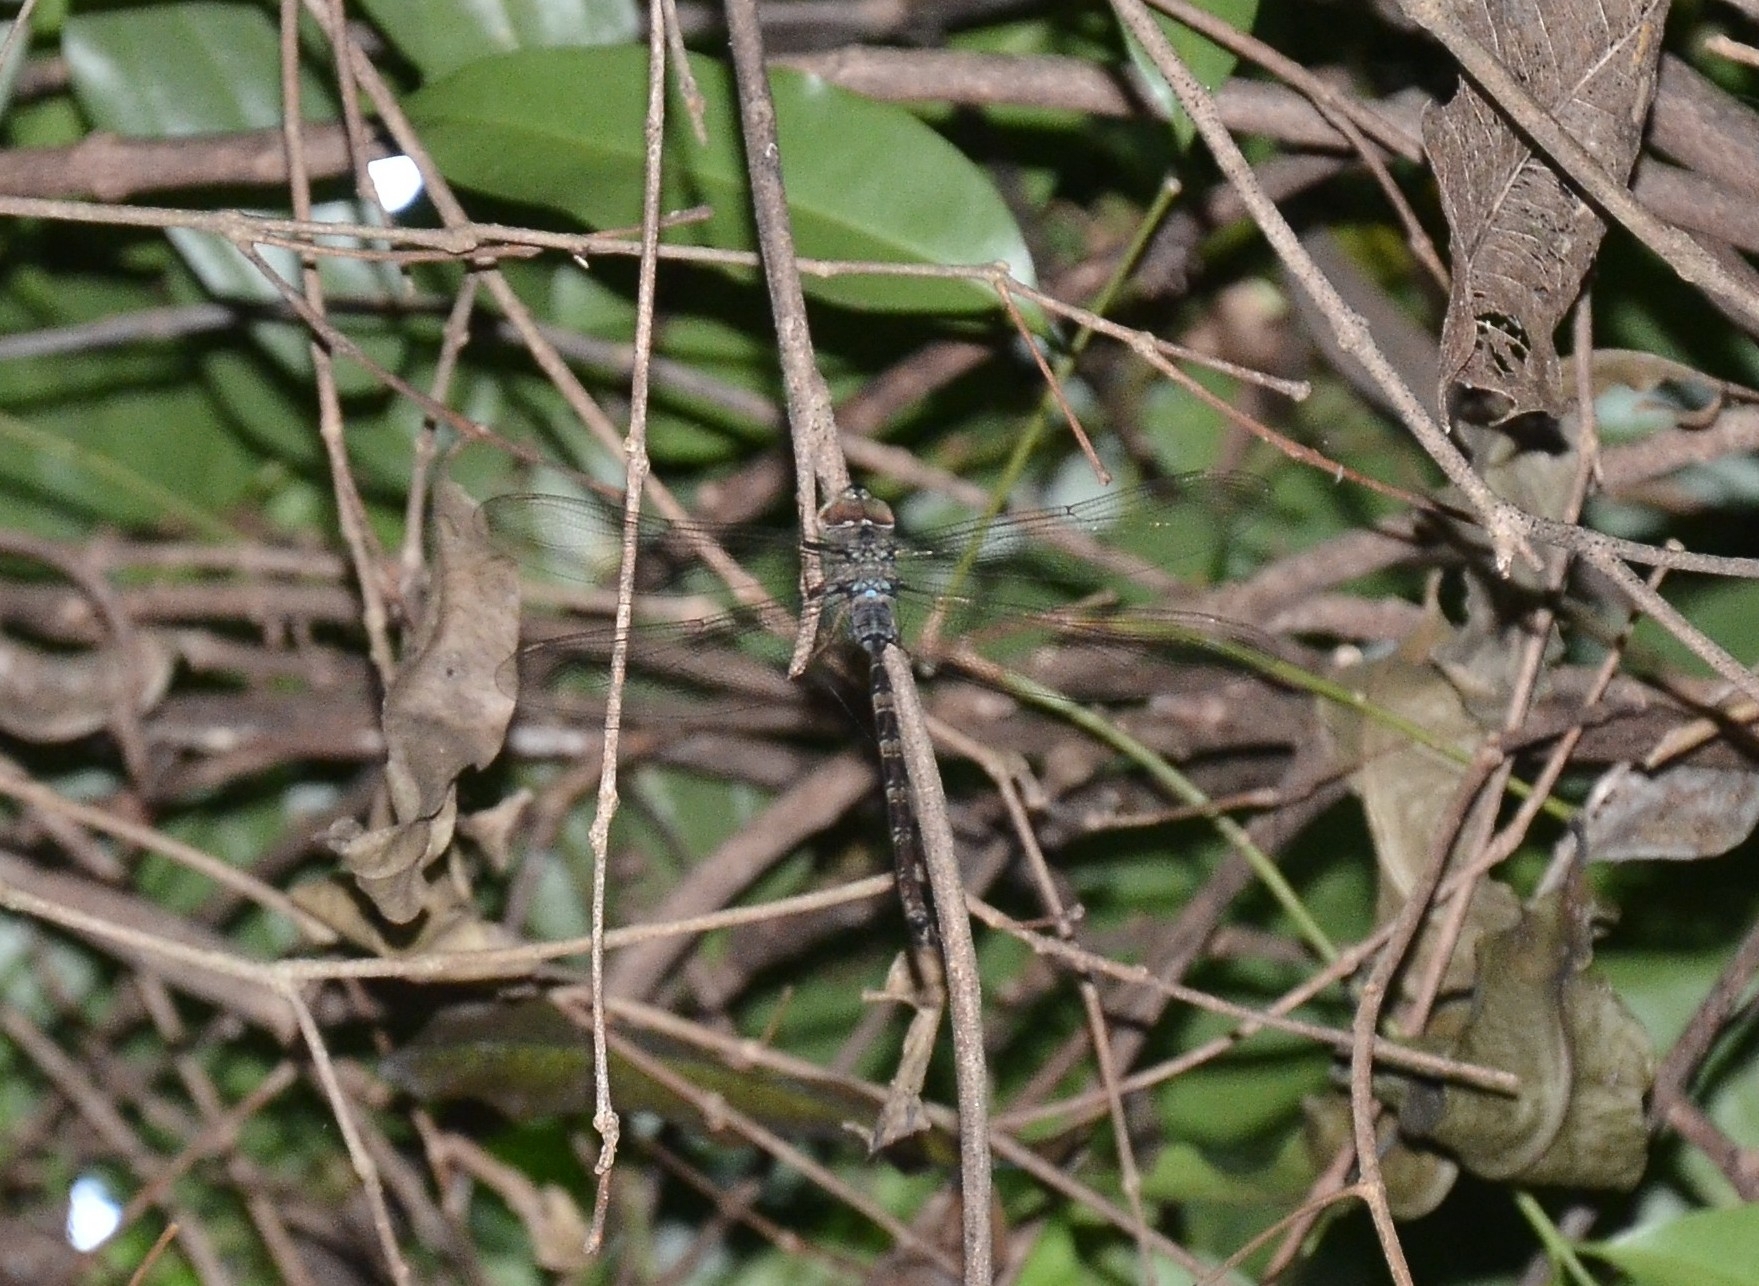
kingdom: Animalia
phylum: Arthropoda
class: Insecta
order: Odonata
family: Aeshnidae
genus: Gynacantha
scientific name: Gynacantha dravida
